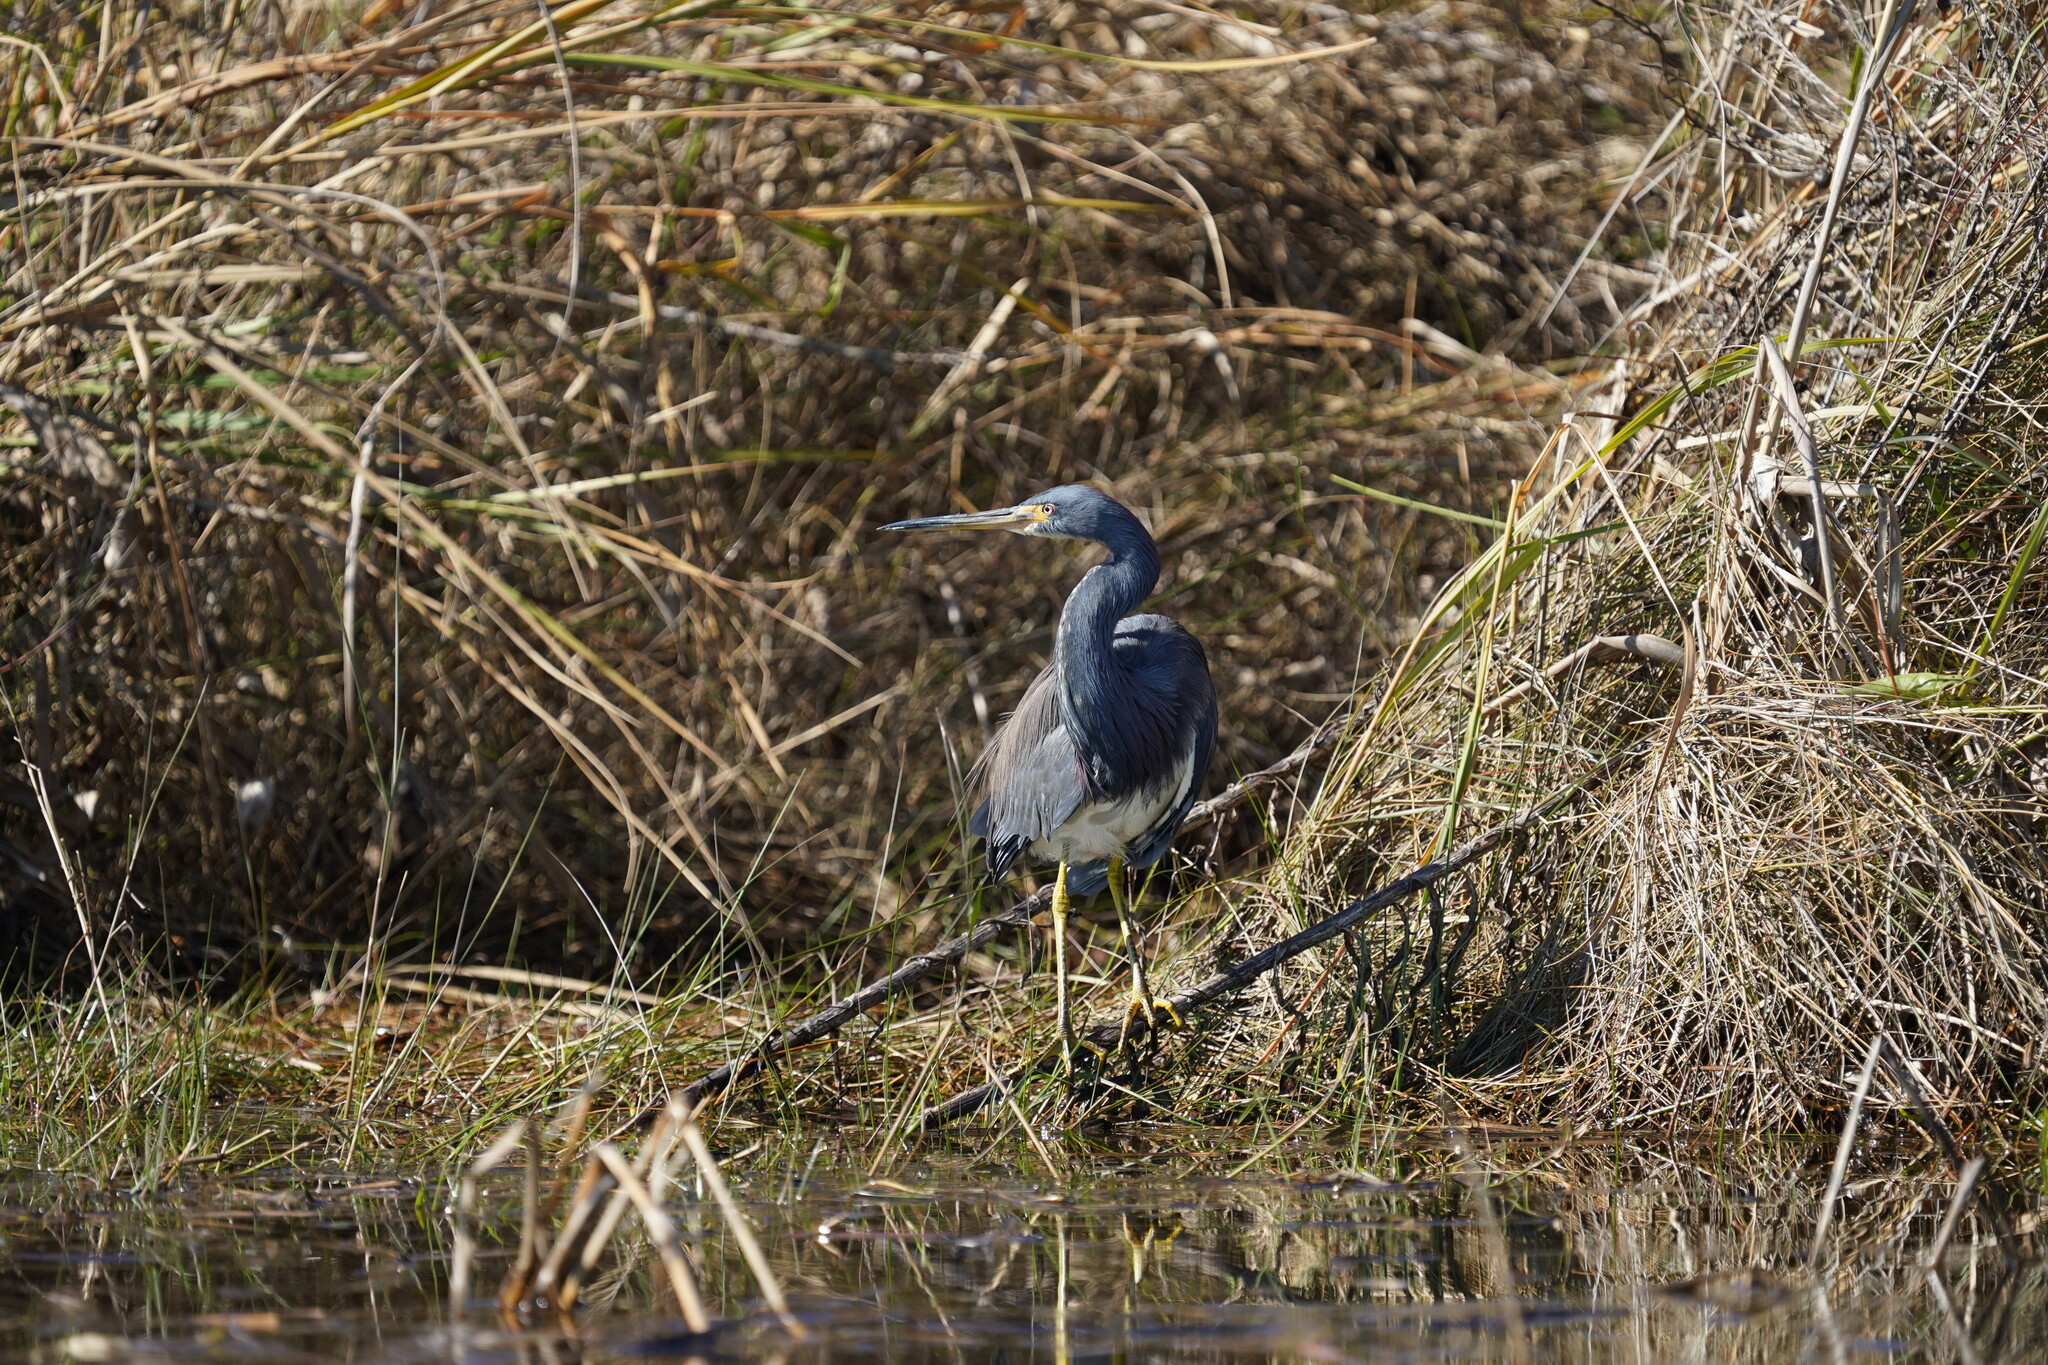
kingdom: Animalia
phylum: Chordata
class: Aves
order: Pelecaniformes
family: Ardeidae
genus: Egretta
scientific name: Egretta tricolor
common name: Tricolored heron
